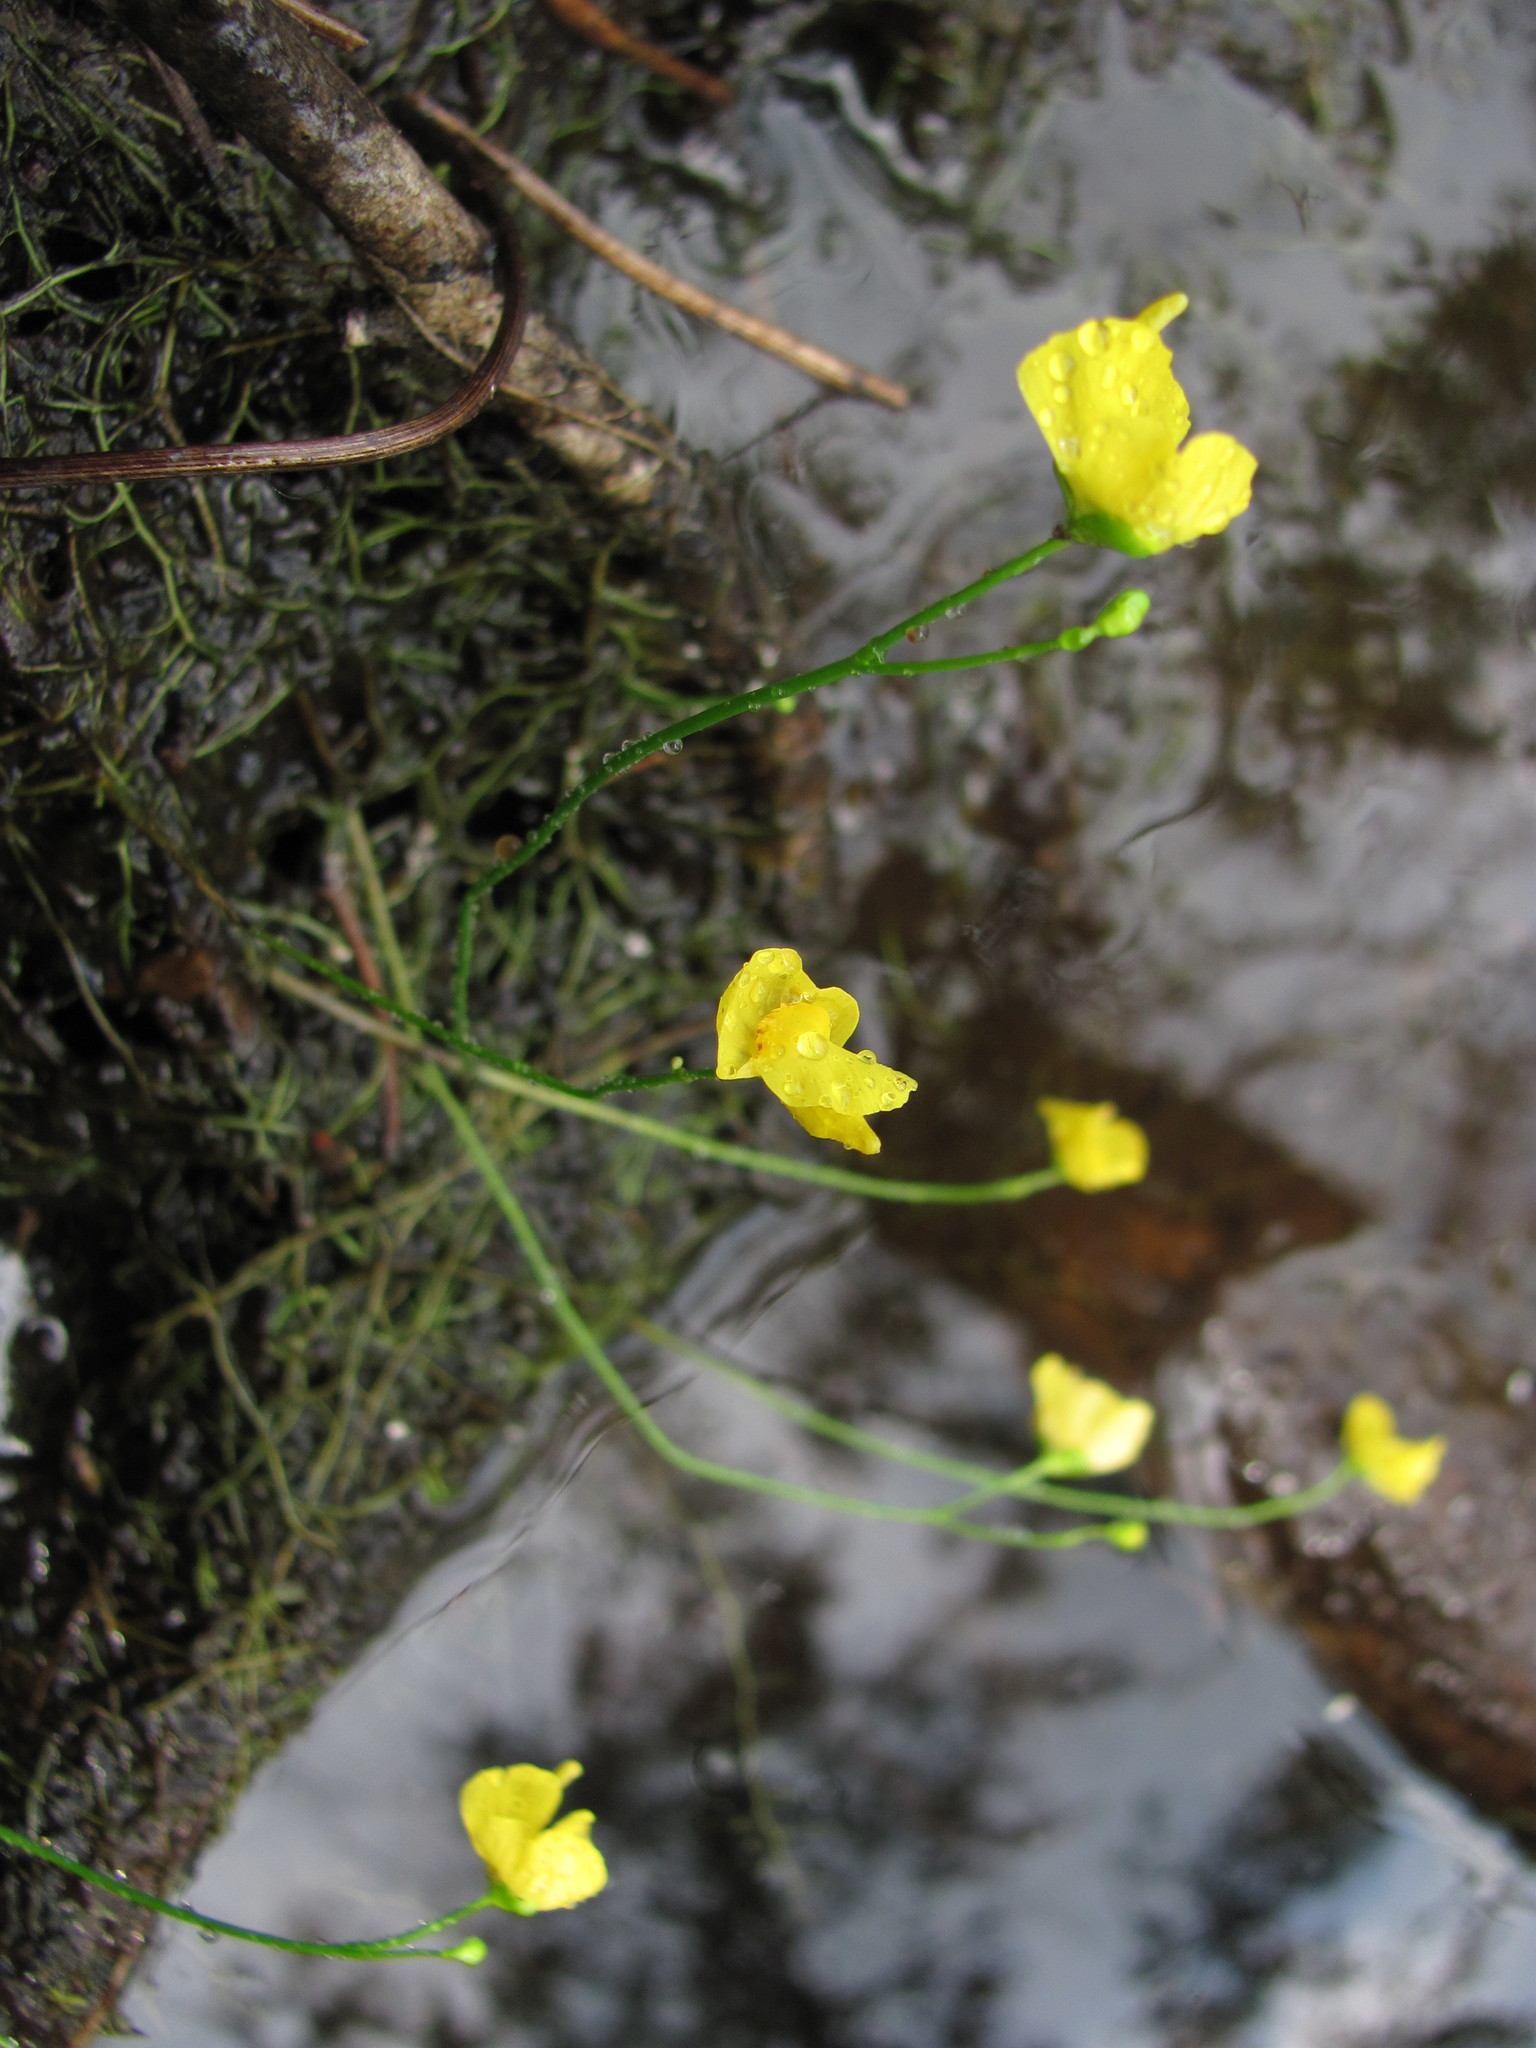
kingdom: Plantae
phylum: Tracheophyta
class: Magnoliopsida
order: Lamiales
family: Lentibulariaceae
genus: Utricularia
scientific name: Utricularia gibba
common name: Humped bladderwort
